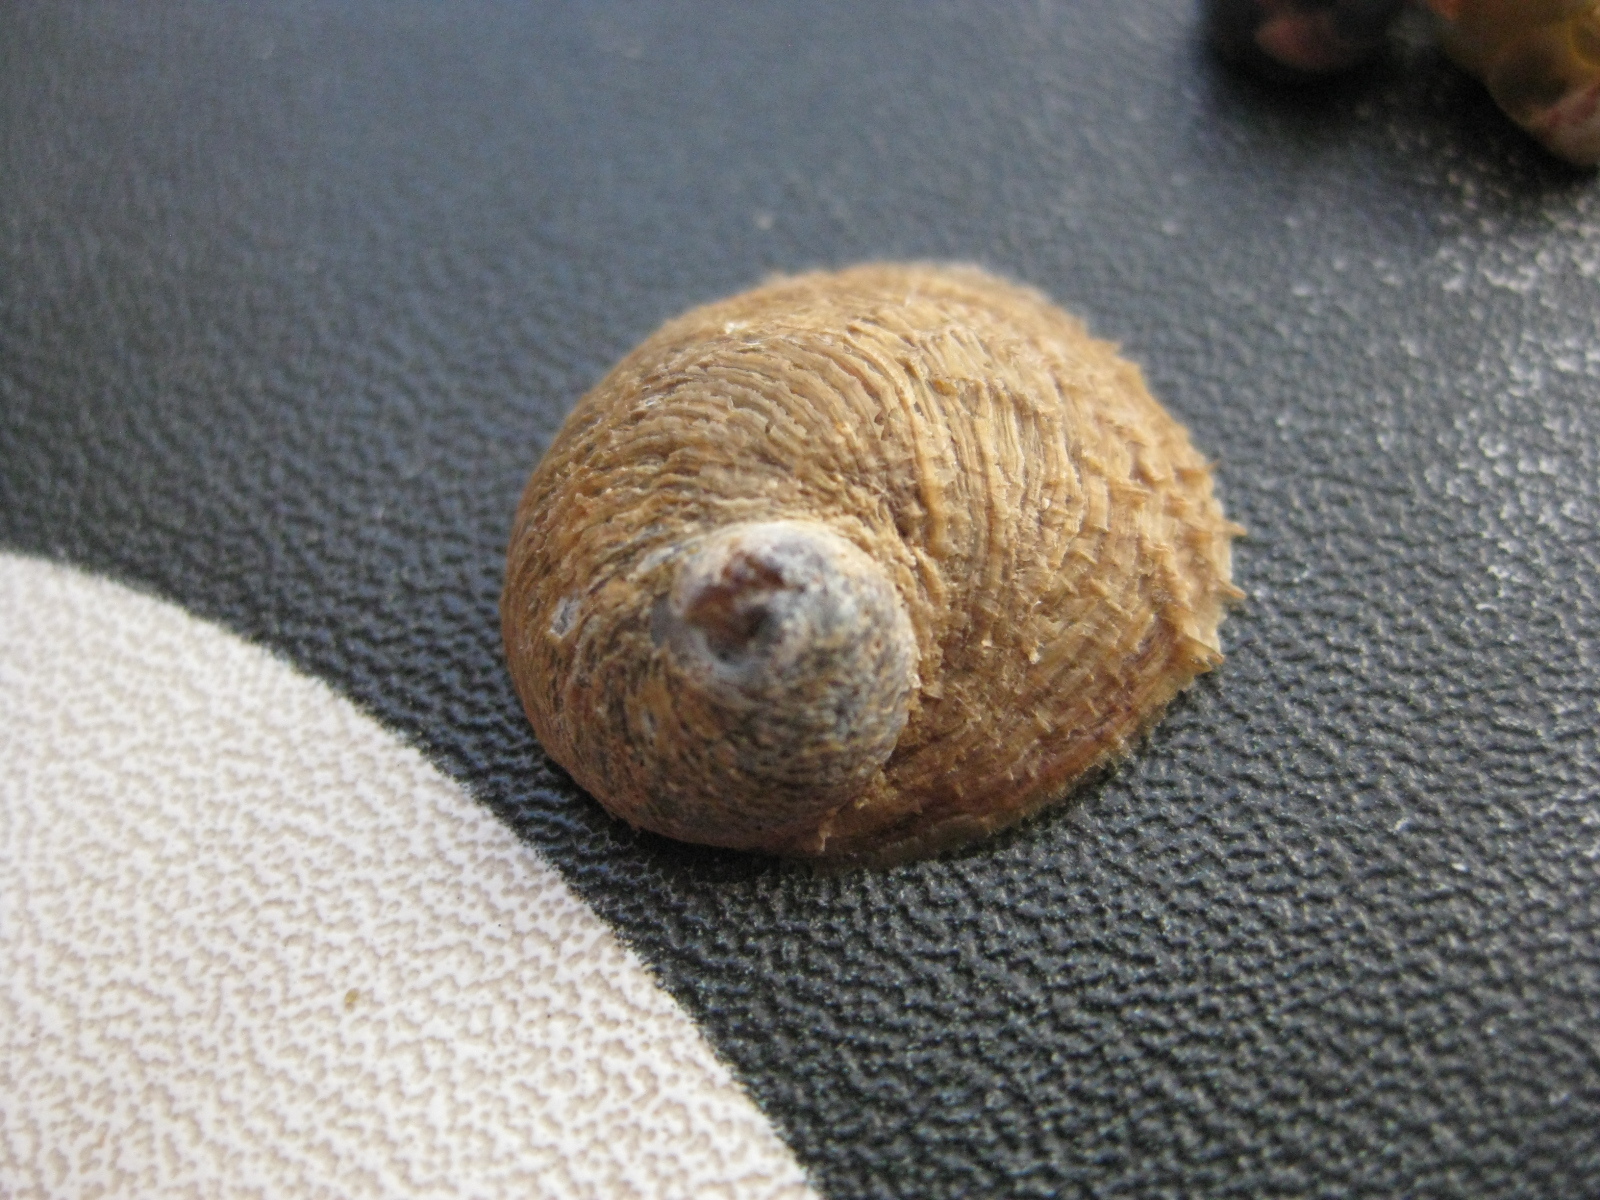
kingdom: Animalia
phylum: Mollusca
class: Gastropoda
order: Littorinimorpha
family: Calyptraeidae
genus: Sigapatella
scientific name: Sigapatella novaezelandiae
